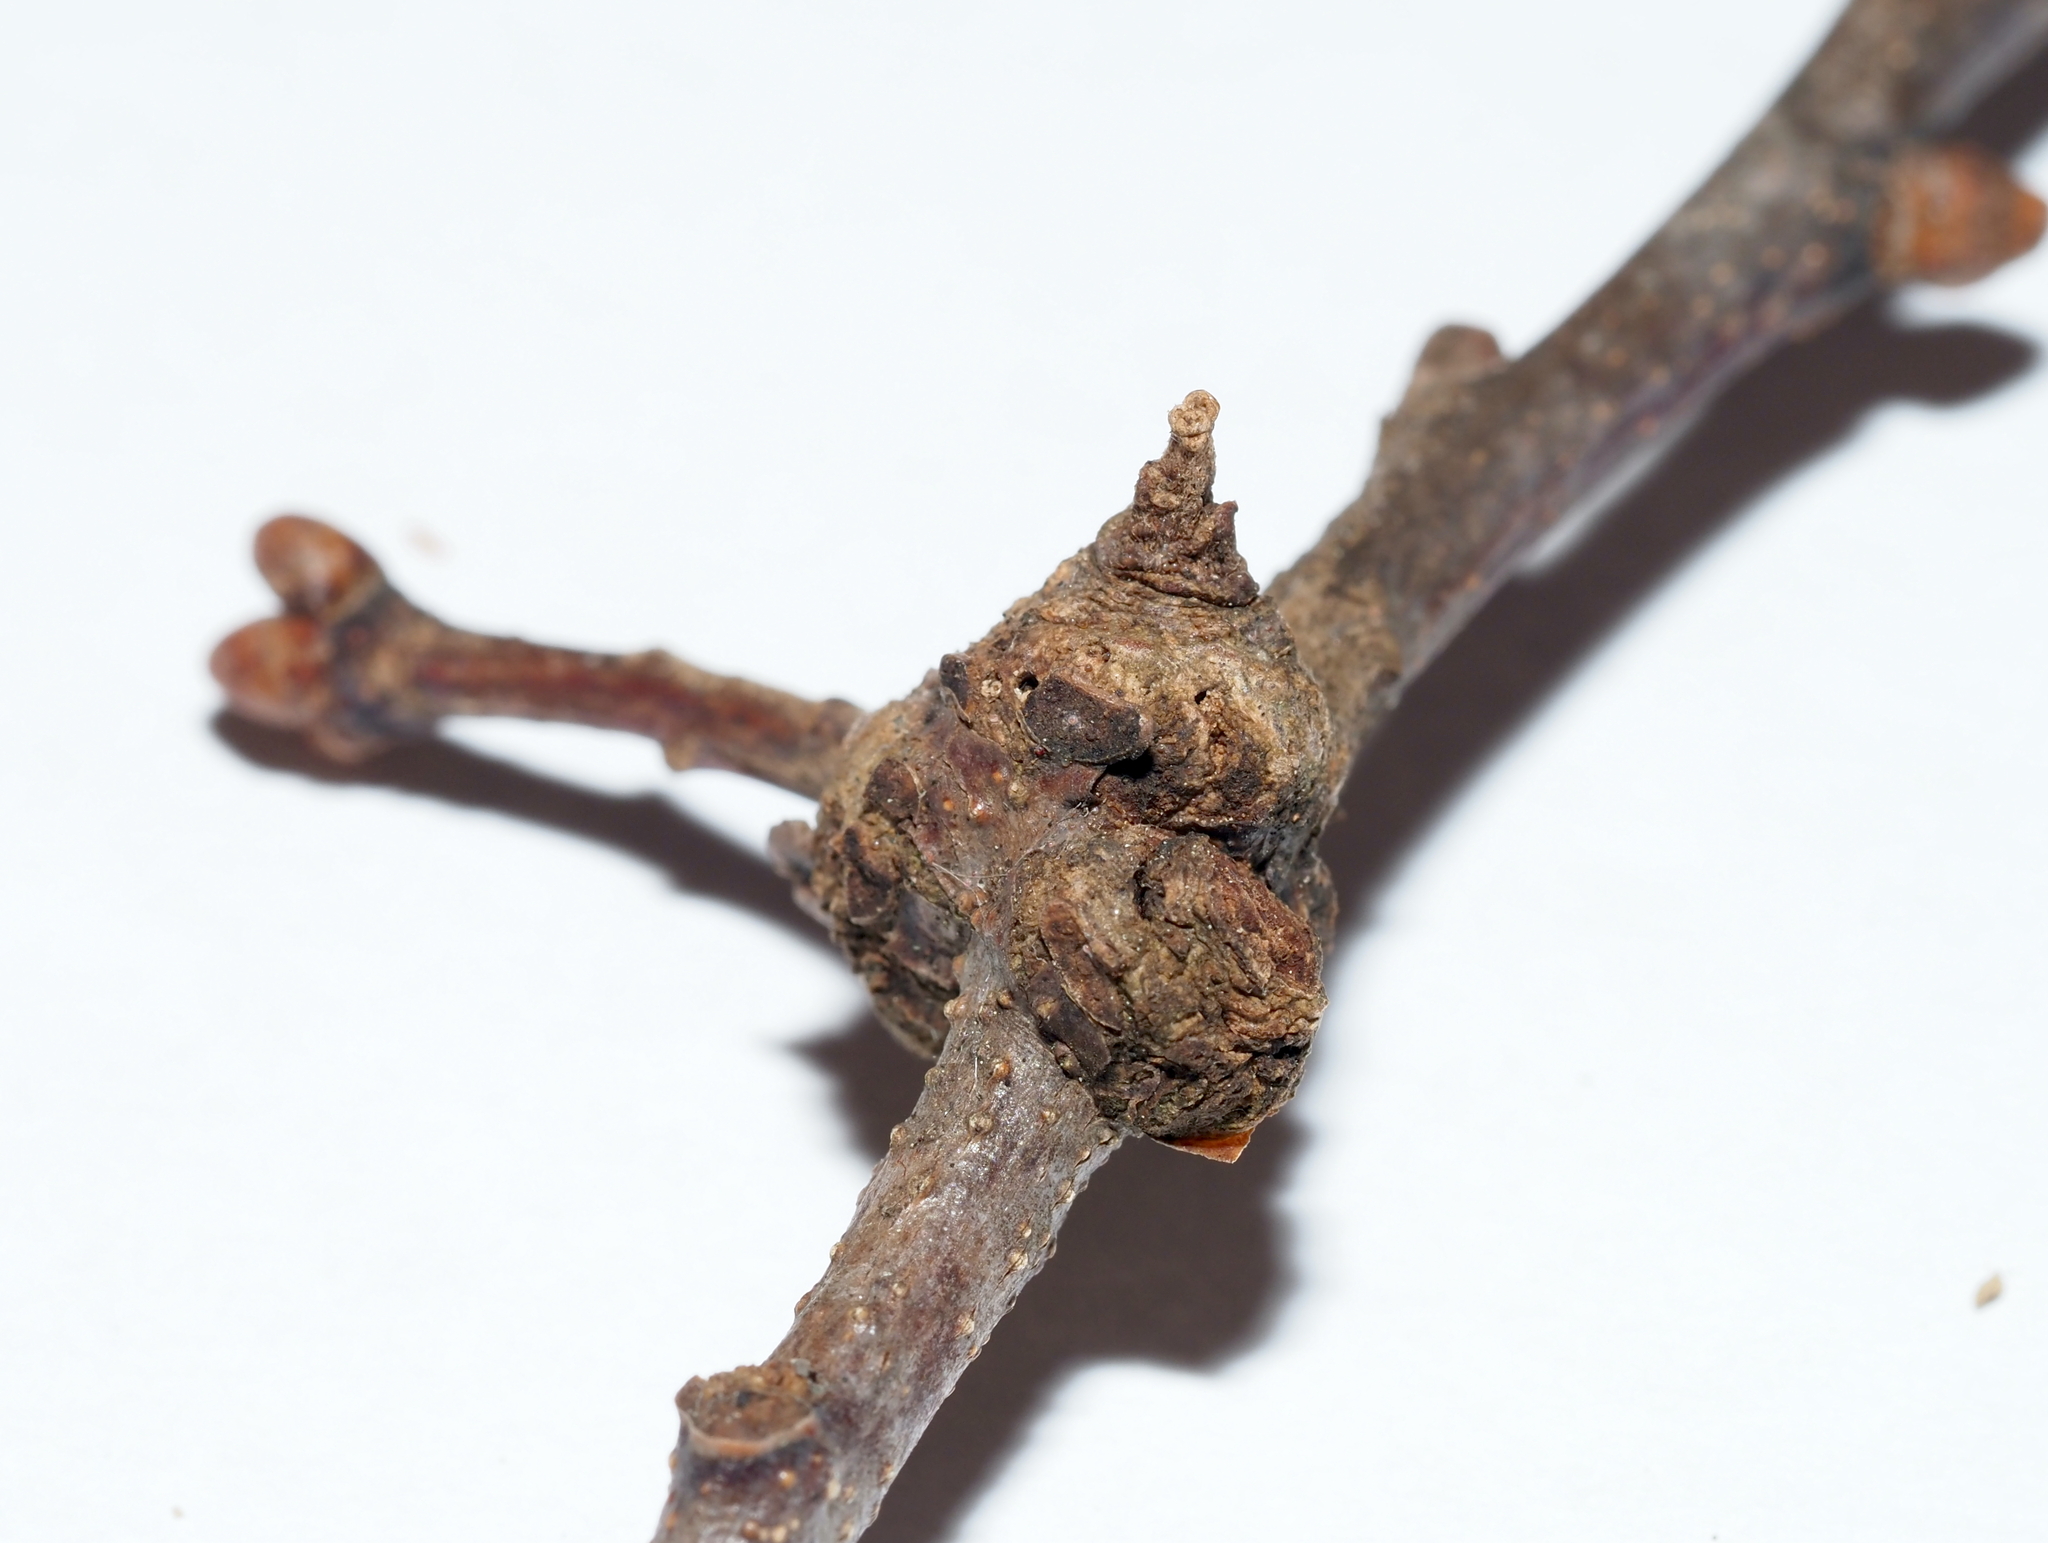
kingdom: Animalia
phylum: Arthropoda
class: Insecta
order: Hymenoptera
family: Cynipidae
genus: Loxaulus
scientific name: Loxaulus
